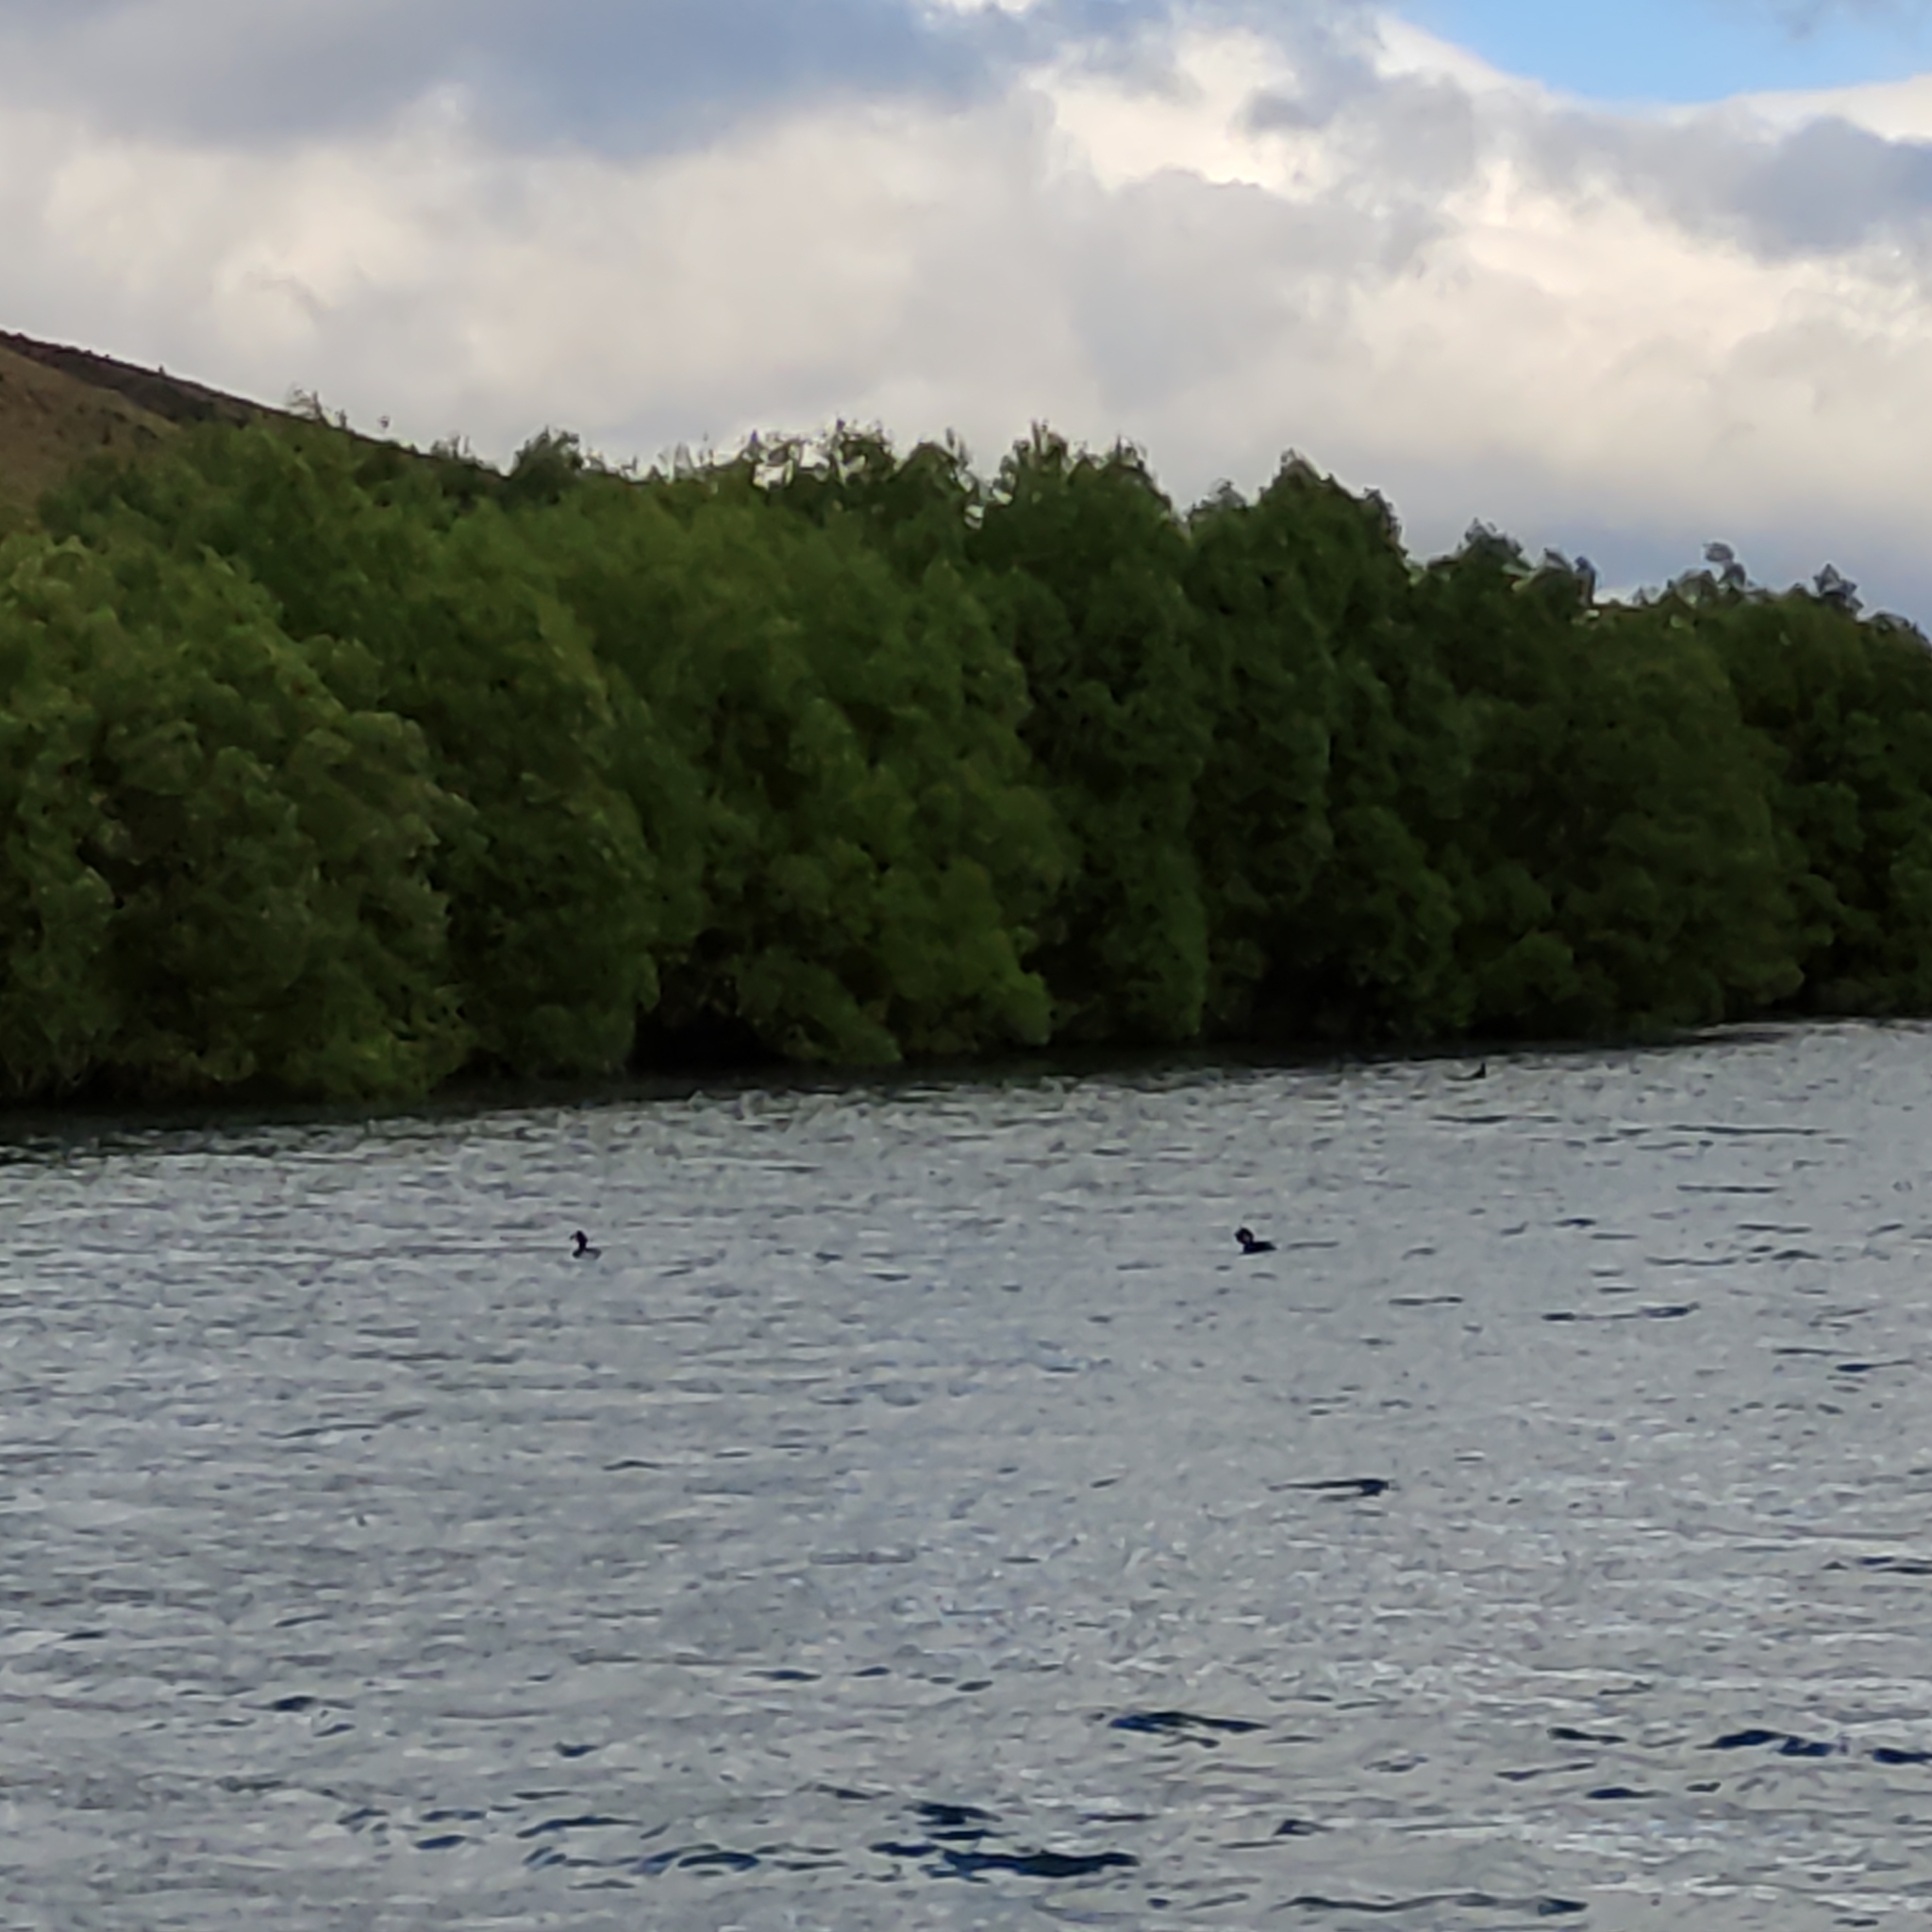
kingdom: Animalia
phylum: Chordata
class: Aves
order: Podicipediformes
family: Podicipedidae
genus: Podiceps
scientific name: Podiceps cristatus
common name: Great crested grebe
